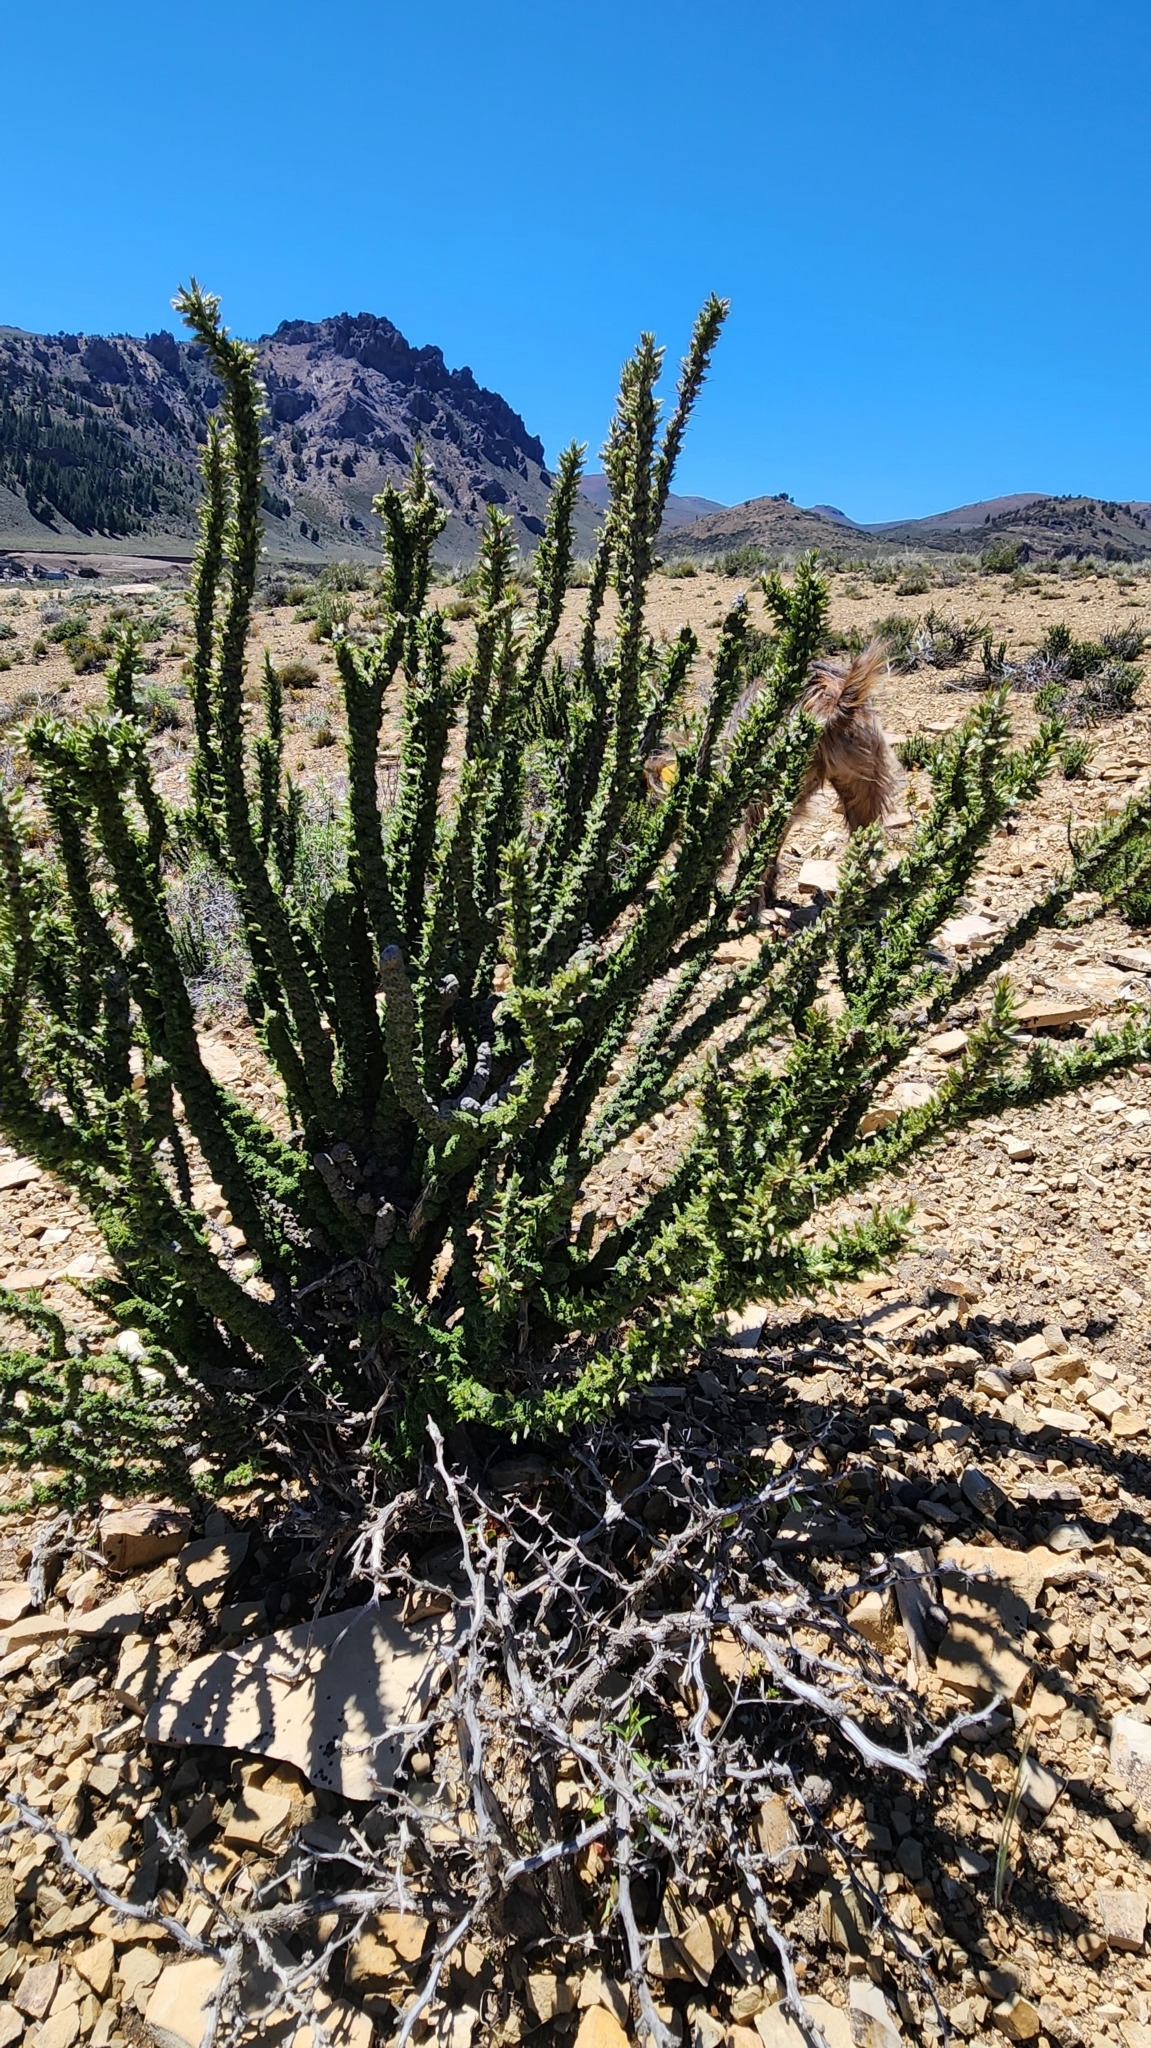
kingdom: Plantae
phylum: Tracheophyta
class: Magnoliopsida
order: Asterales
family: Asteraceae
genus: Nassauvia
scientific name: Nassauvia glomerulosa
